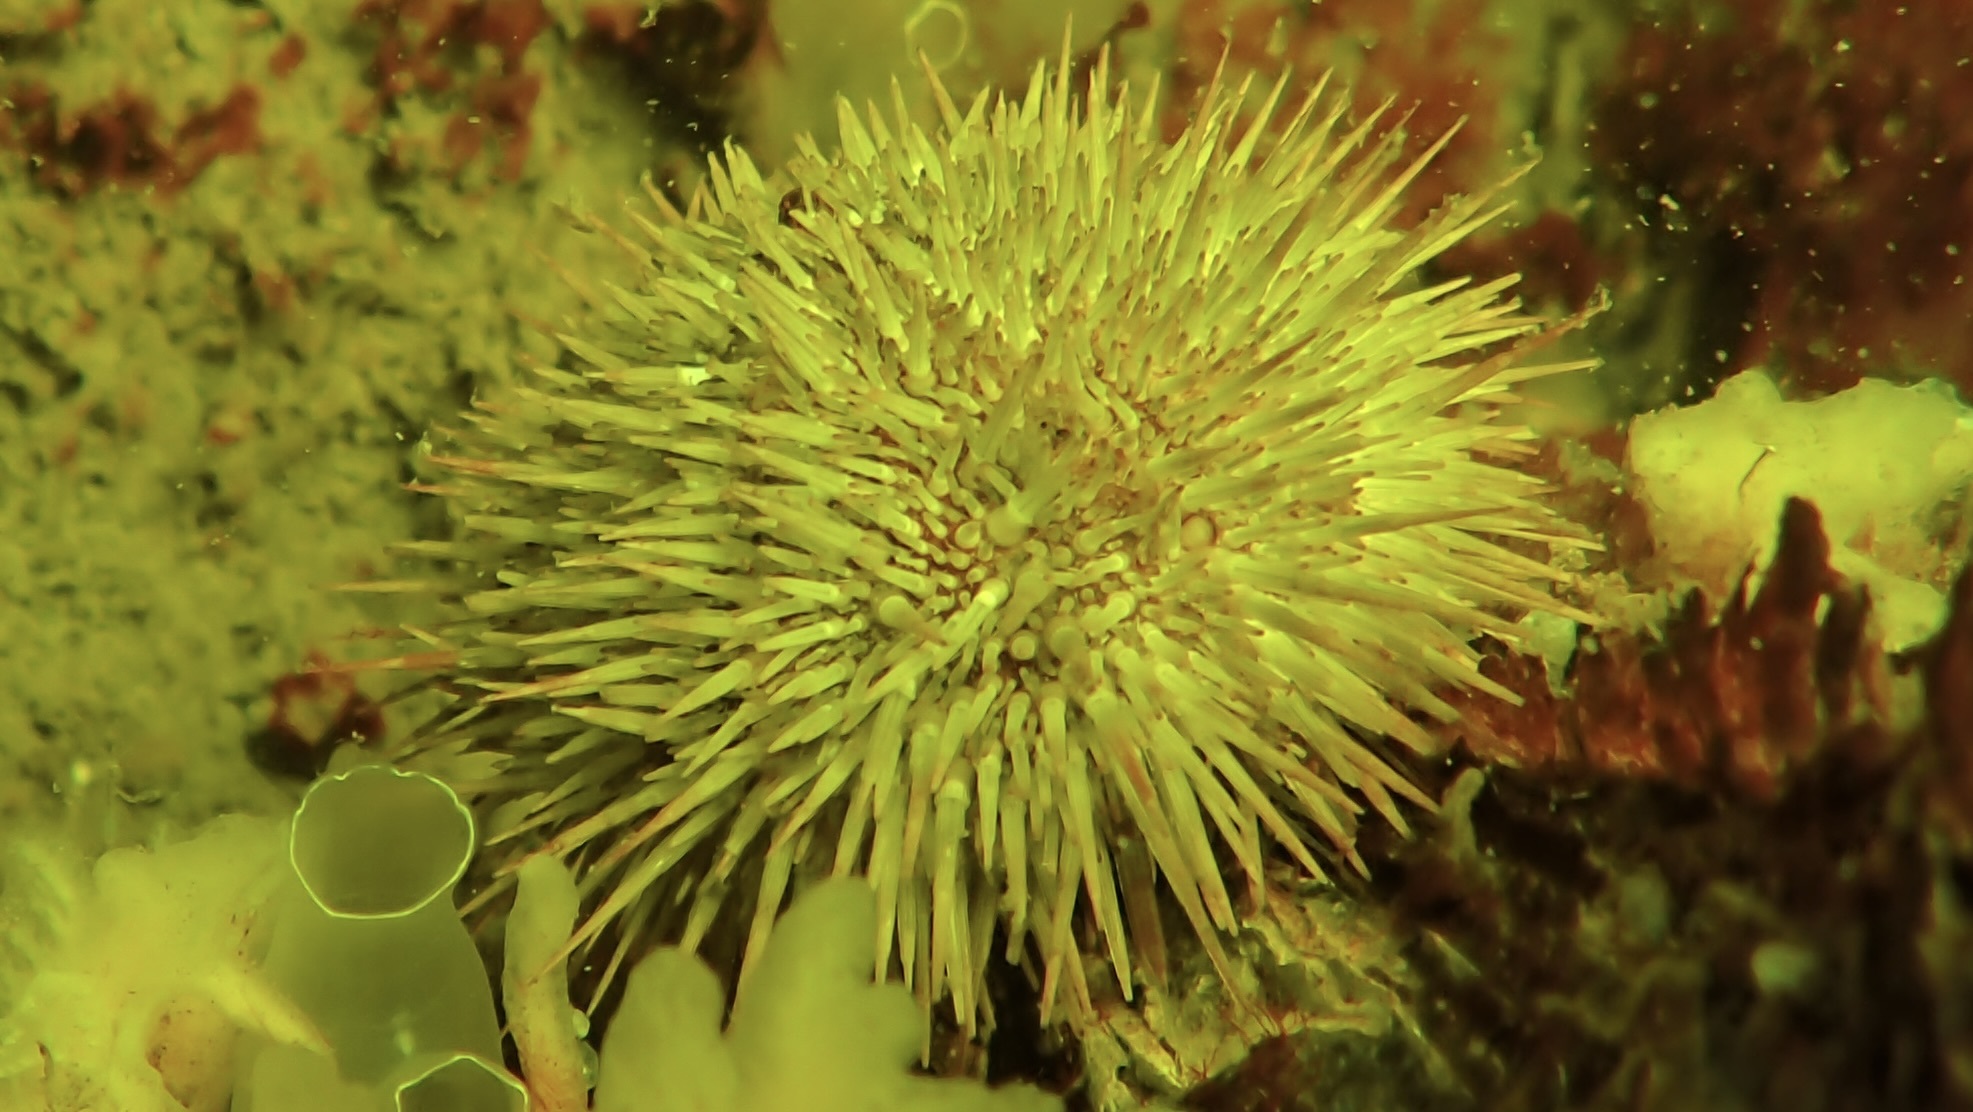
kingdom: Animalia
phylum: Echinodermata
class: Echinoidea
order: Camarodonta
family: Parechinidae
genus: Psammechinus
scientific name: Psammechinus miliaris
